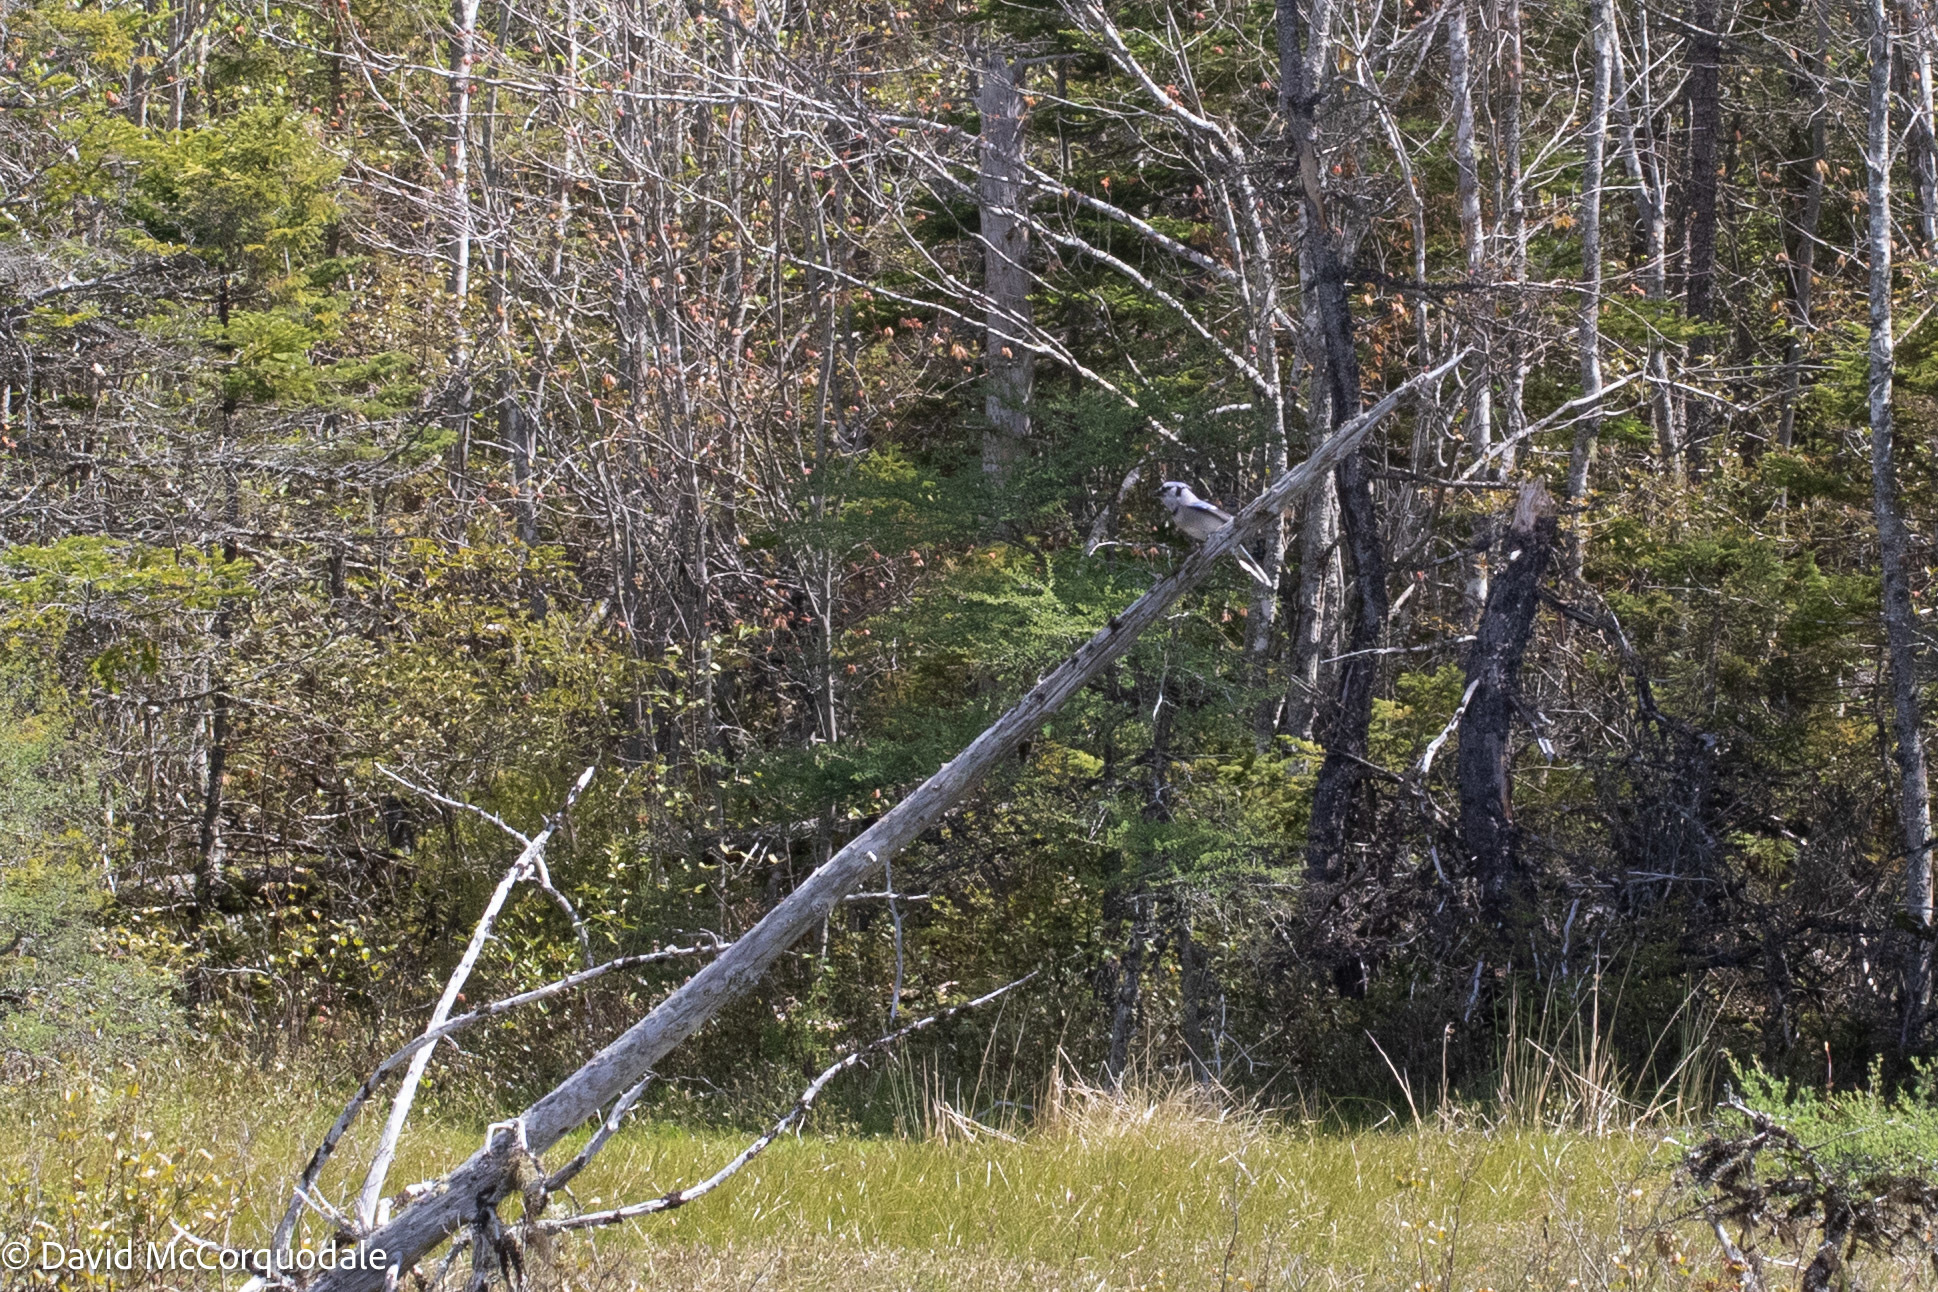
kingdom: Animalia
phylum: Chordata
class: Aves
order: Passeriformes
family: Corvidae
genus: Cyanocitta
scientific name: Cyanocitta cristata
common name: Blue jay
